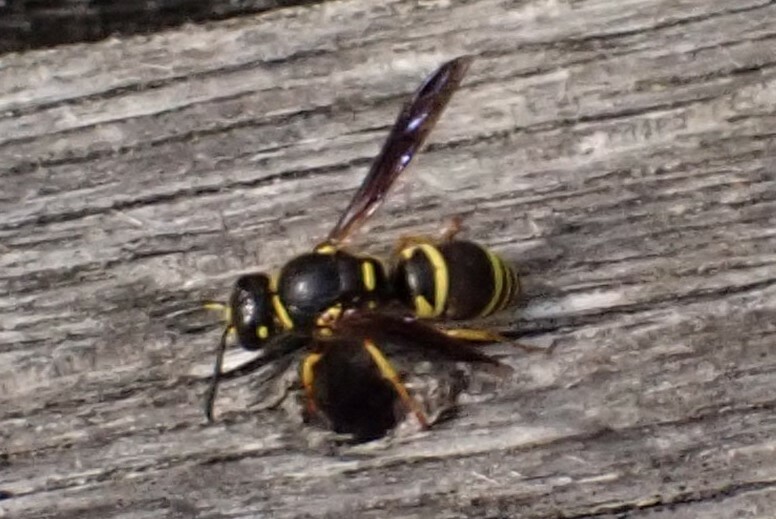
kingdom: Animalia
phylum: Arthropoda
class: Insecta
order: Hymenoptera
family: Eumenidae
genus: Euodynerus
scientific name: Euodynerus foraminatus
